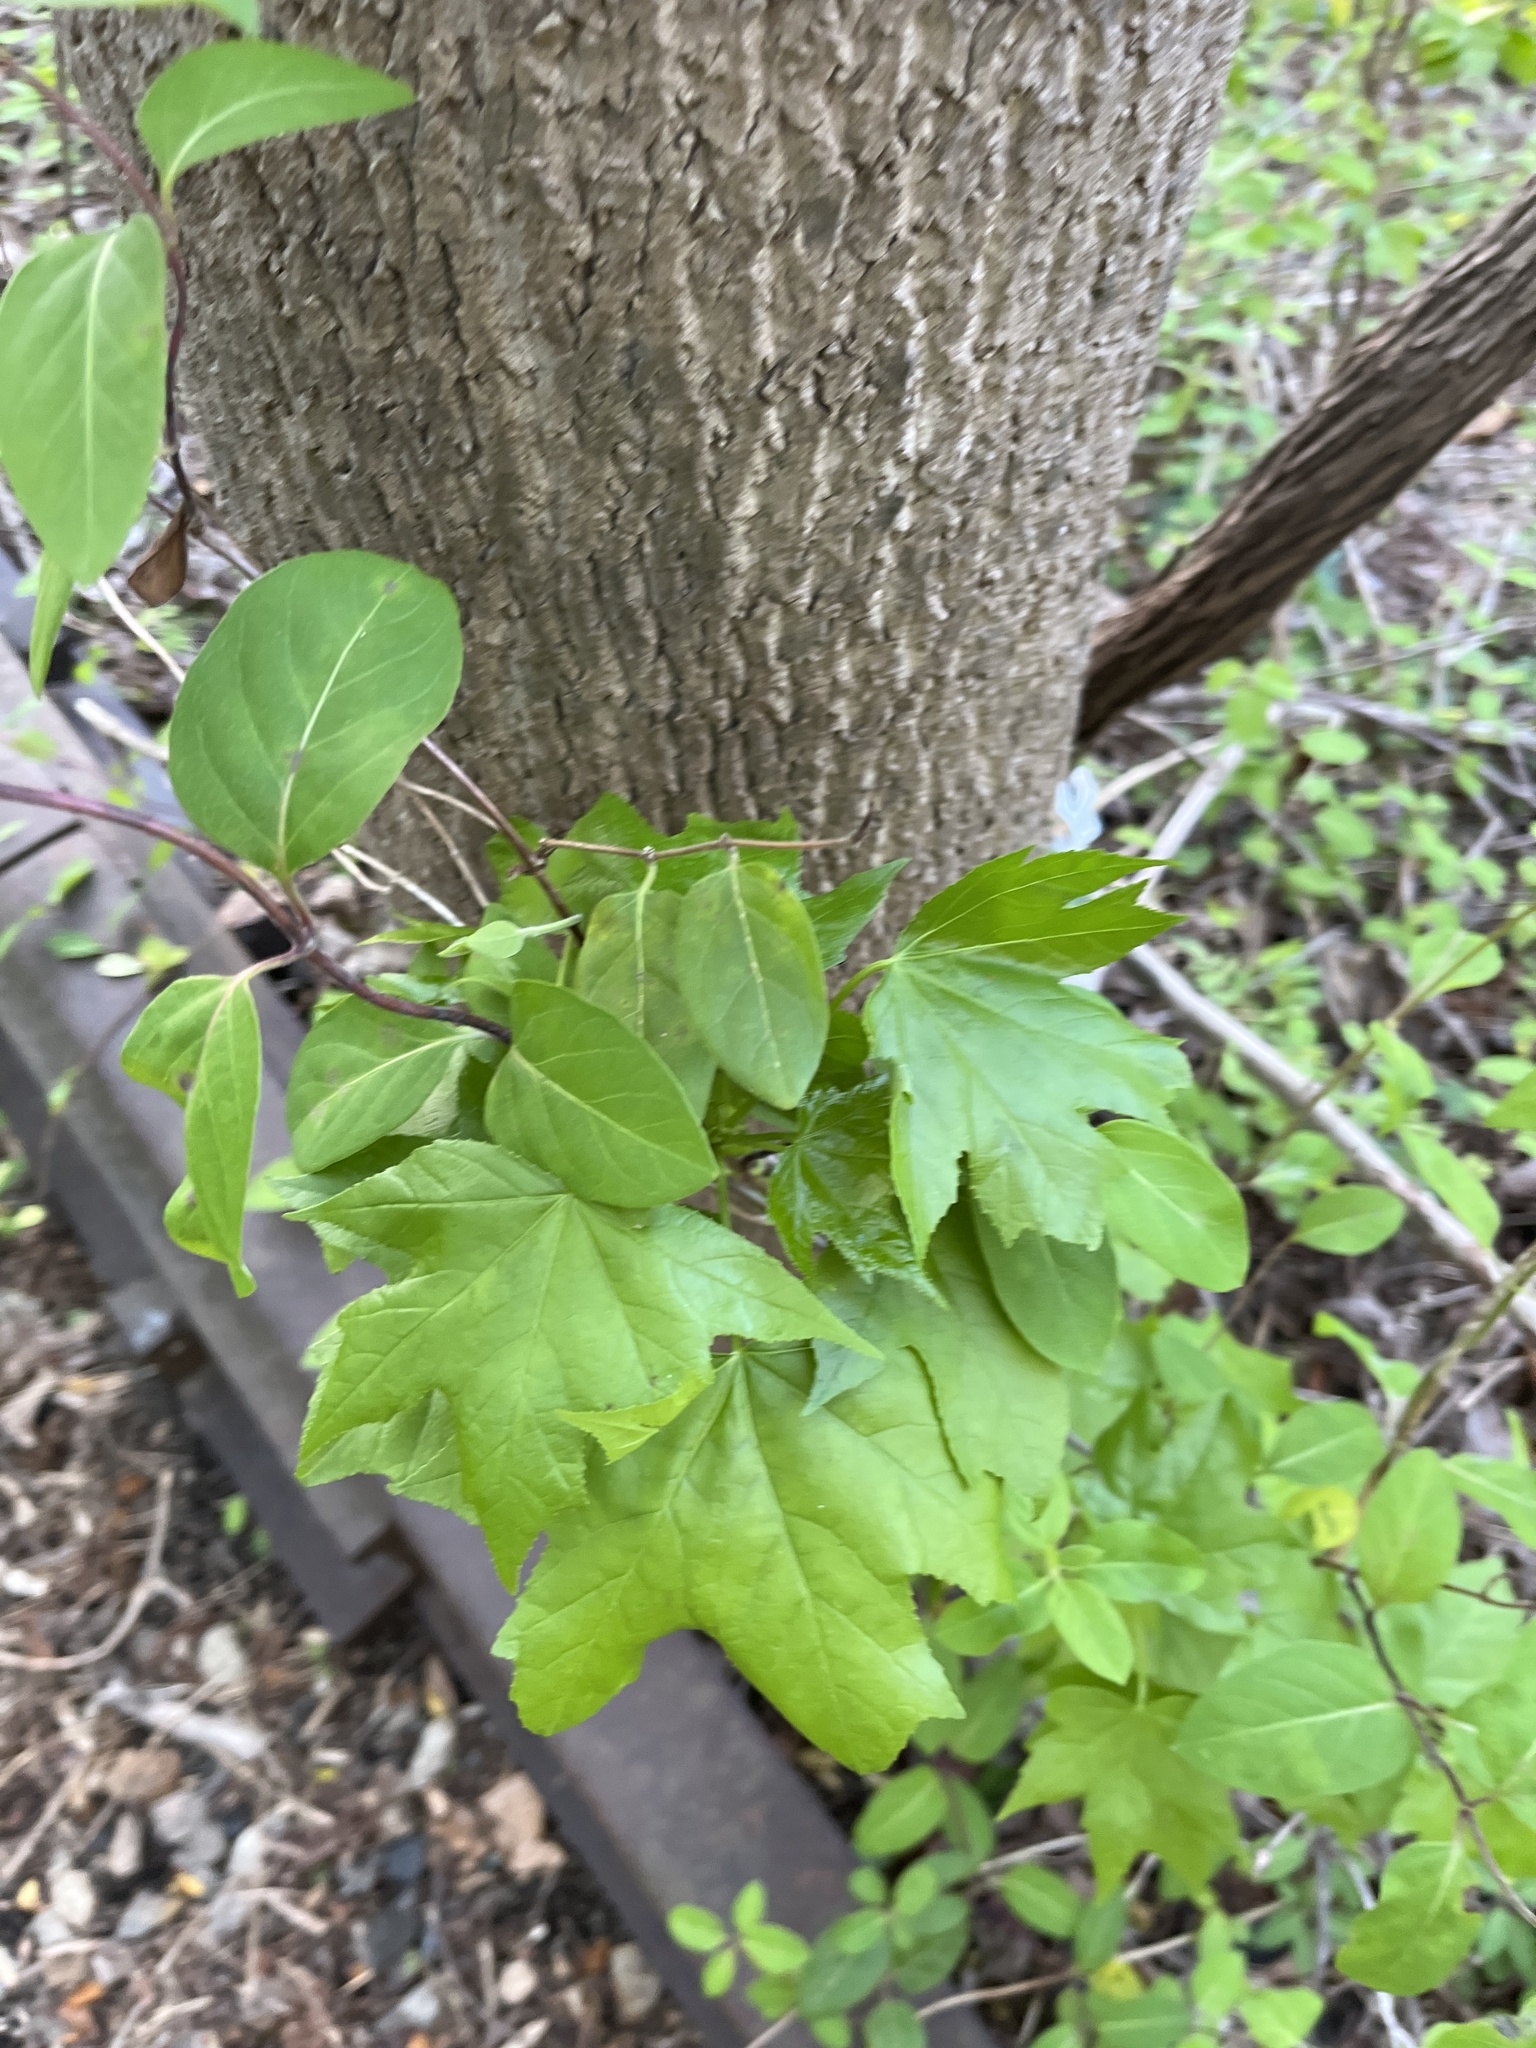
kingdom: Plantae
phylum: Tracheophyta
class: Magnoliopsida
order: Saxifragales
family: Altingiaceae
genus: Liquidambar
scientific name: Liquidambar styraciflua
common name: Sweet gum
